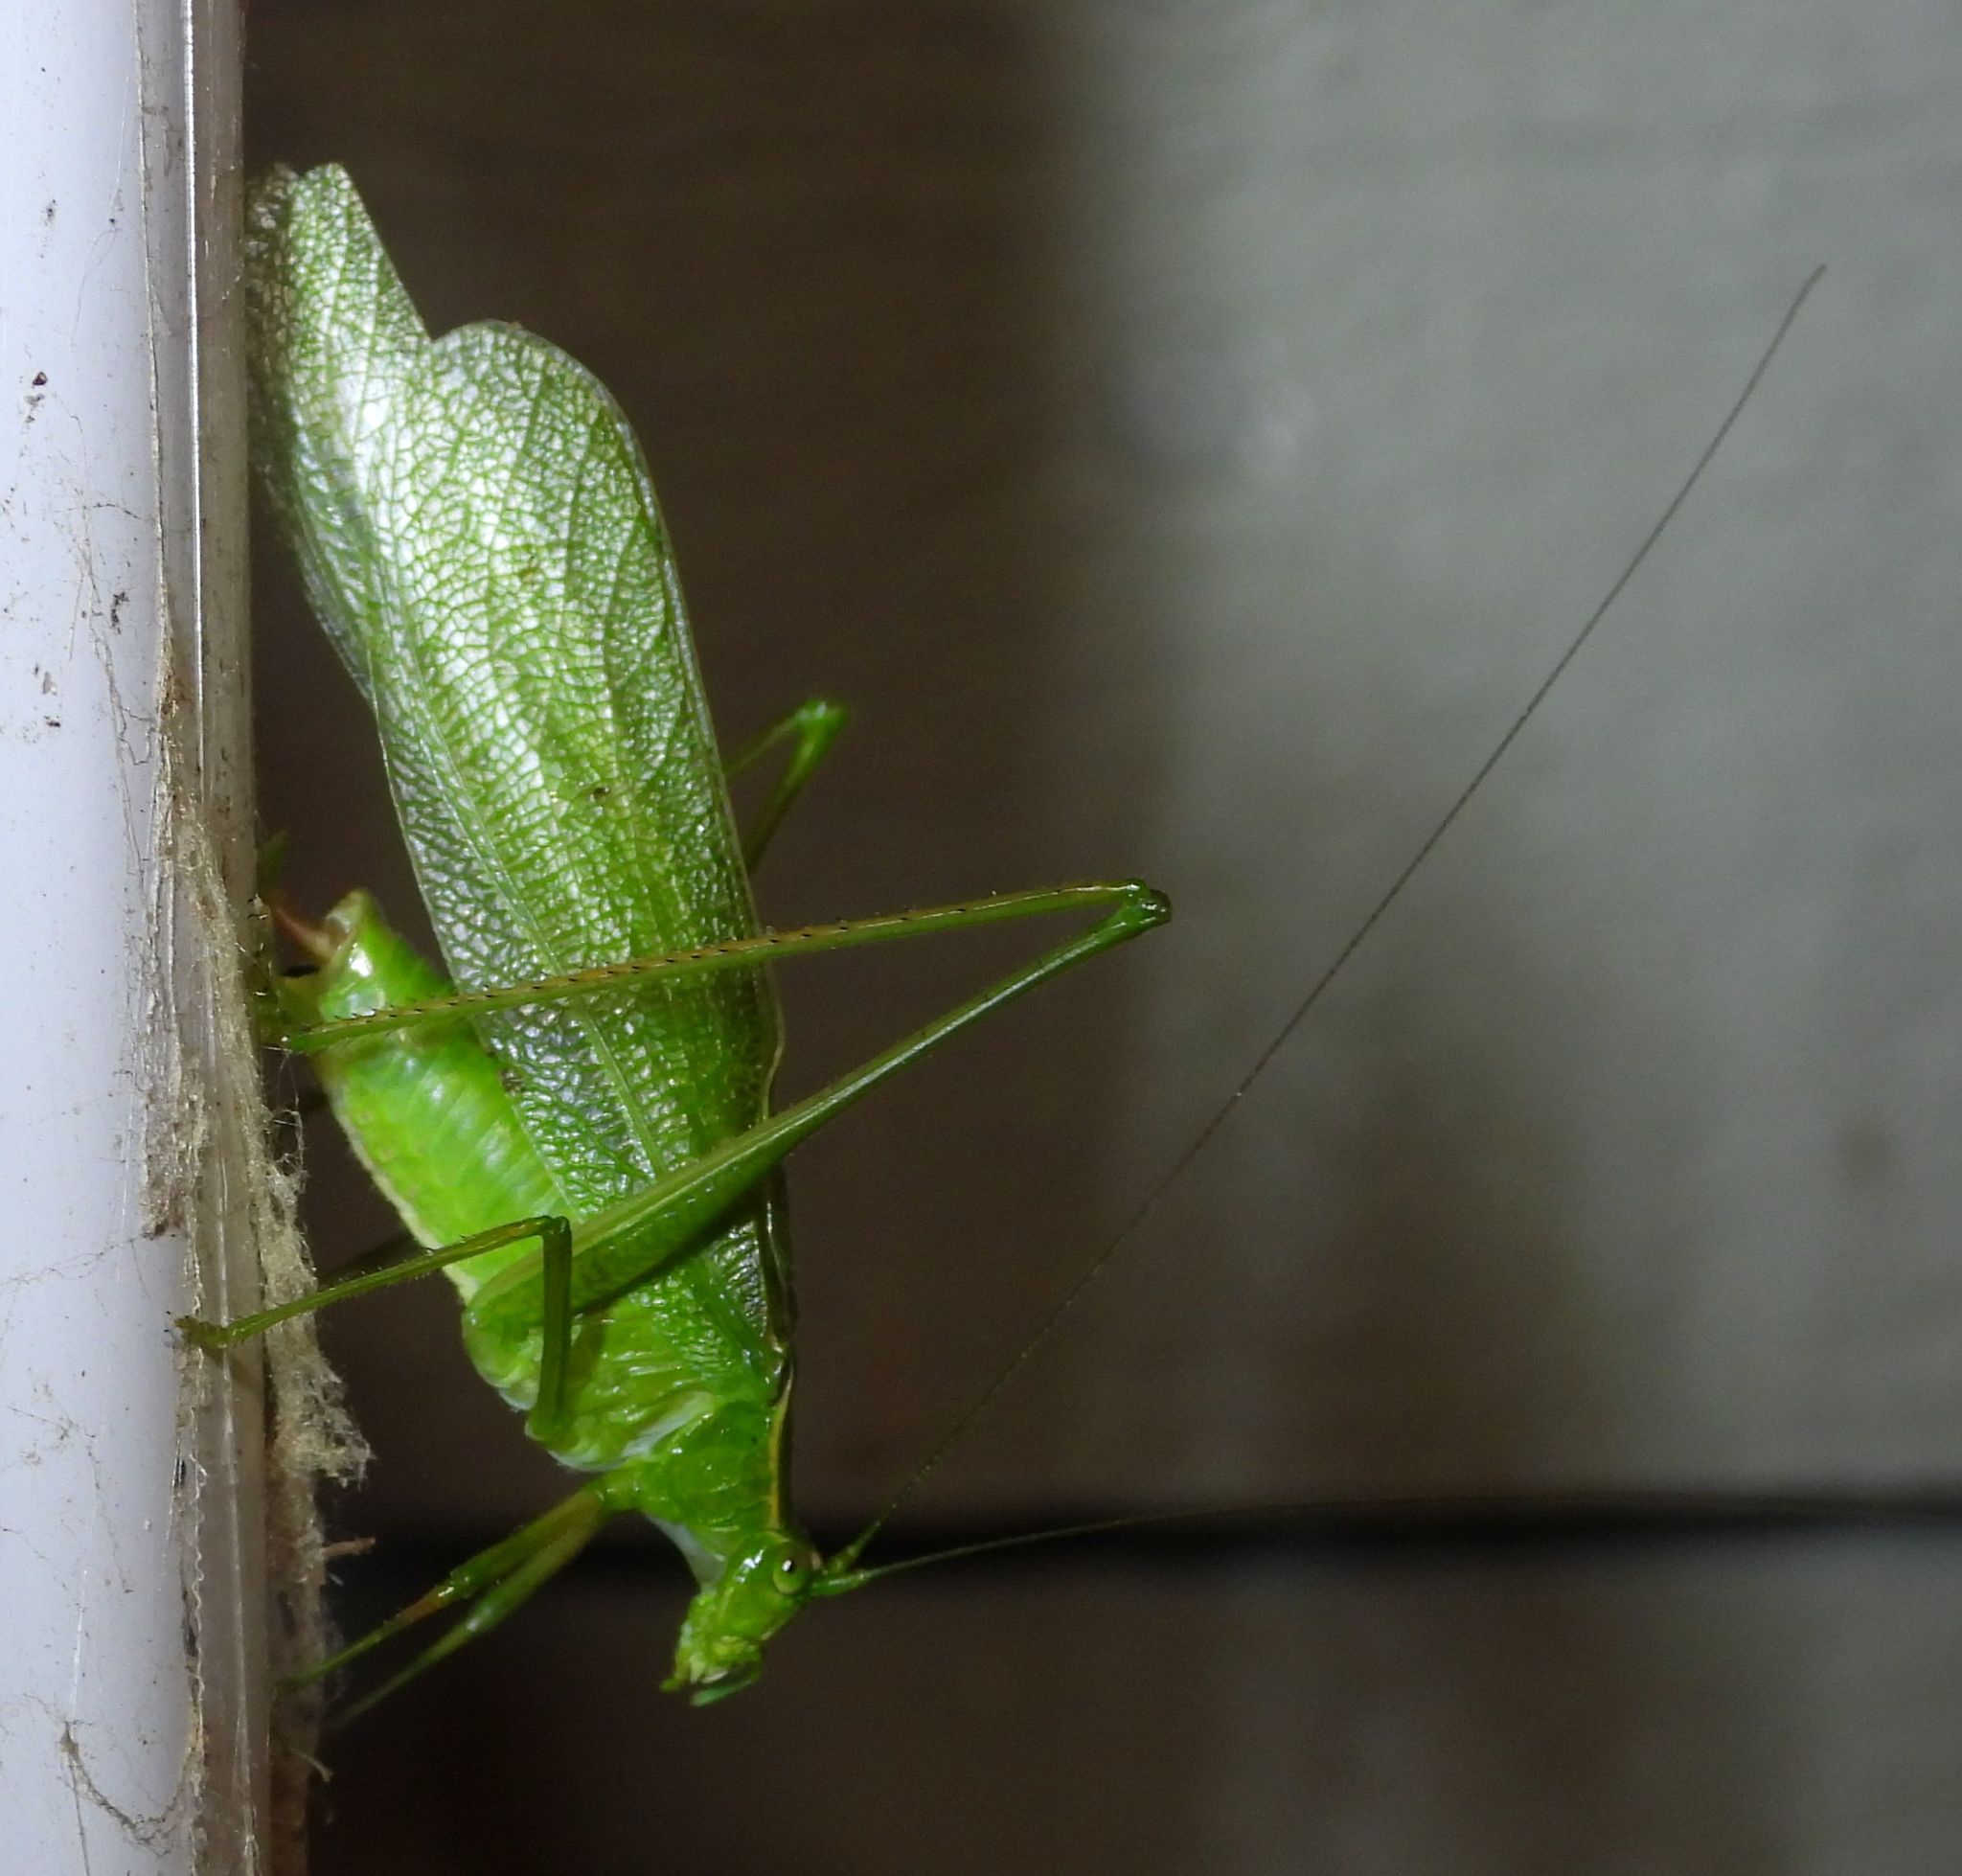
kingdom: Animalia
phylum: Arthropoda
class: Insecta
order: Orthoptera
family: Tettigoniidae
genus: Scudderia
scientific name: Scudderia septentrionalis
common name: Northern bush-katydid
